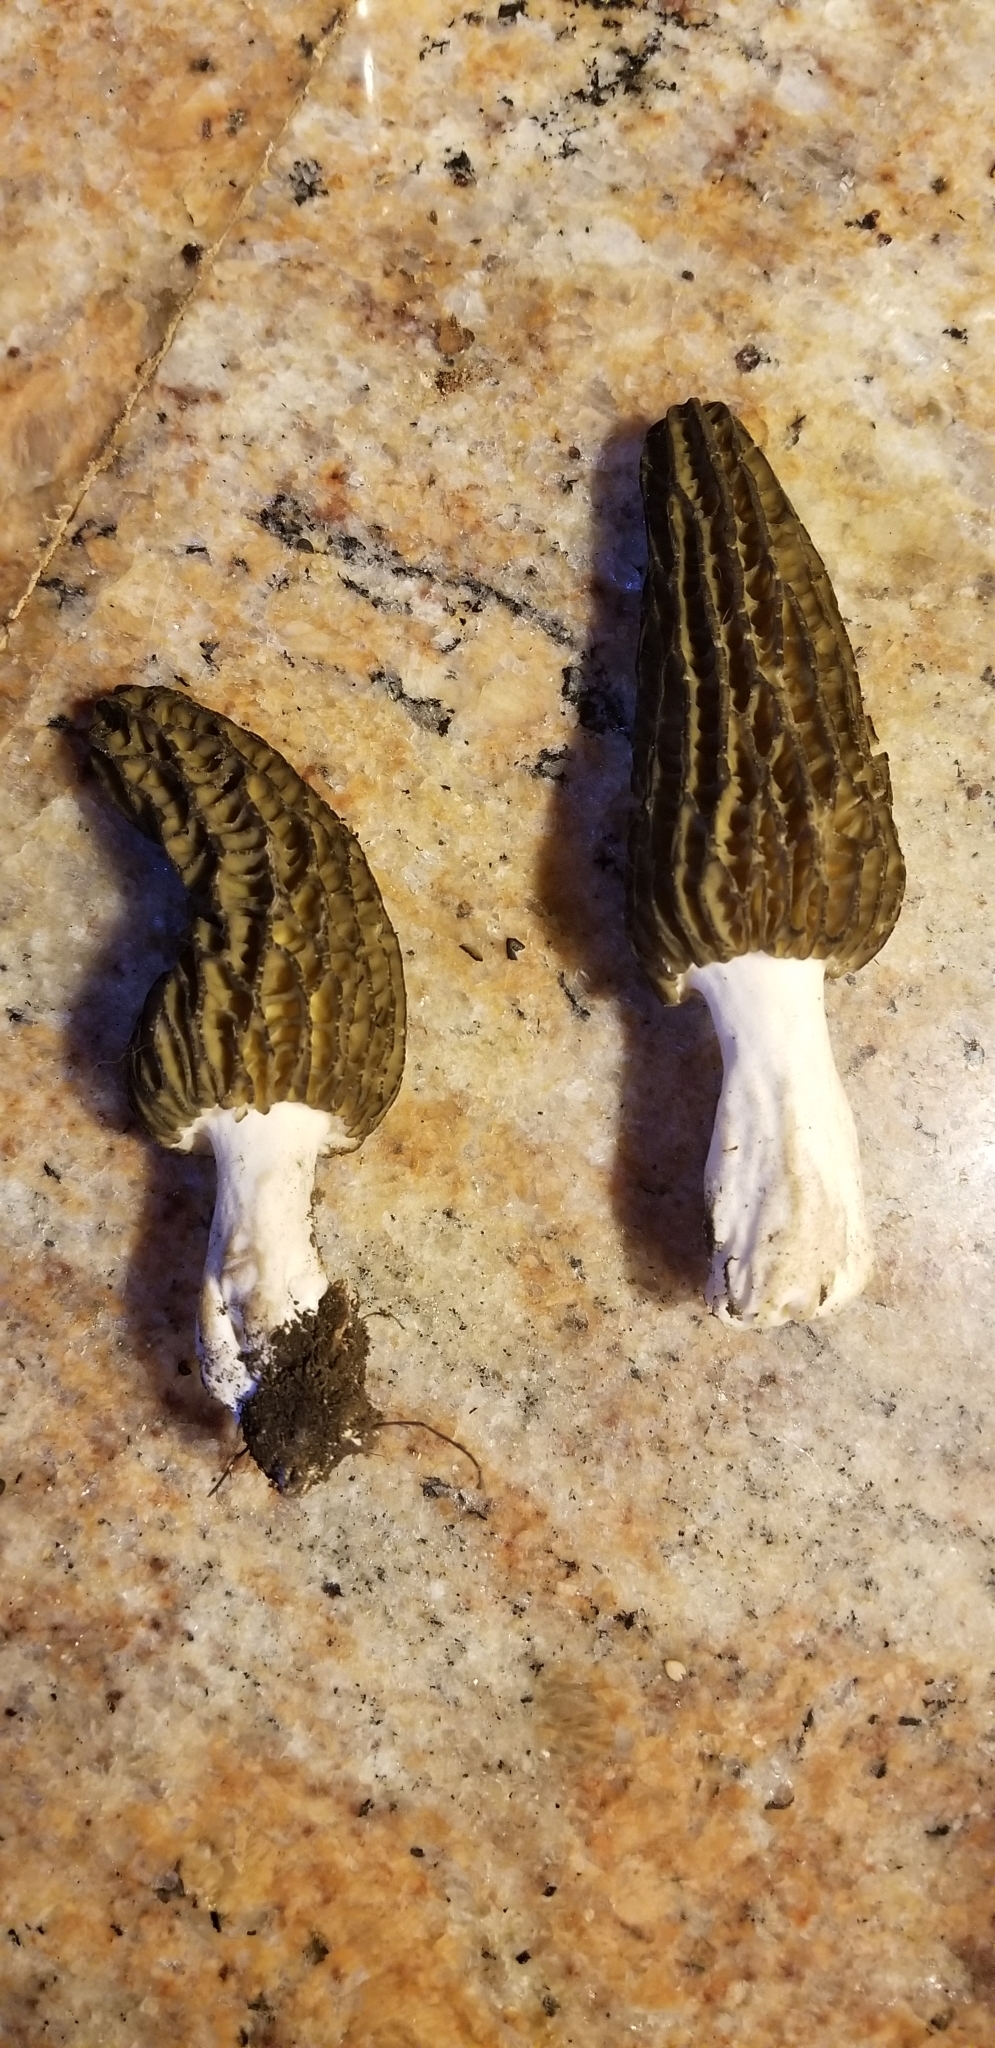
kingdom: Fungi
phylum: Ascomycota
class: Pezizomycetes
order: Pezizales
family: Morchellaceae
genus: Morchella
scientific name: Morchella importuna
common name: Landscaping black morel
